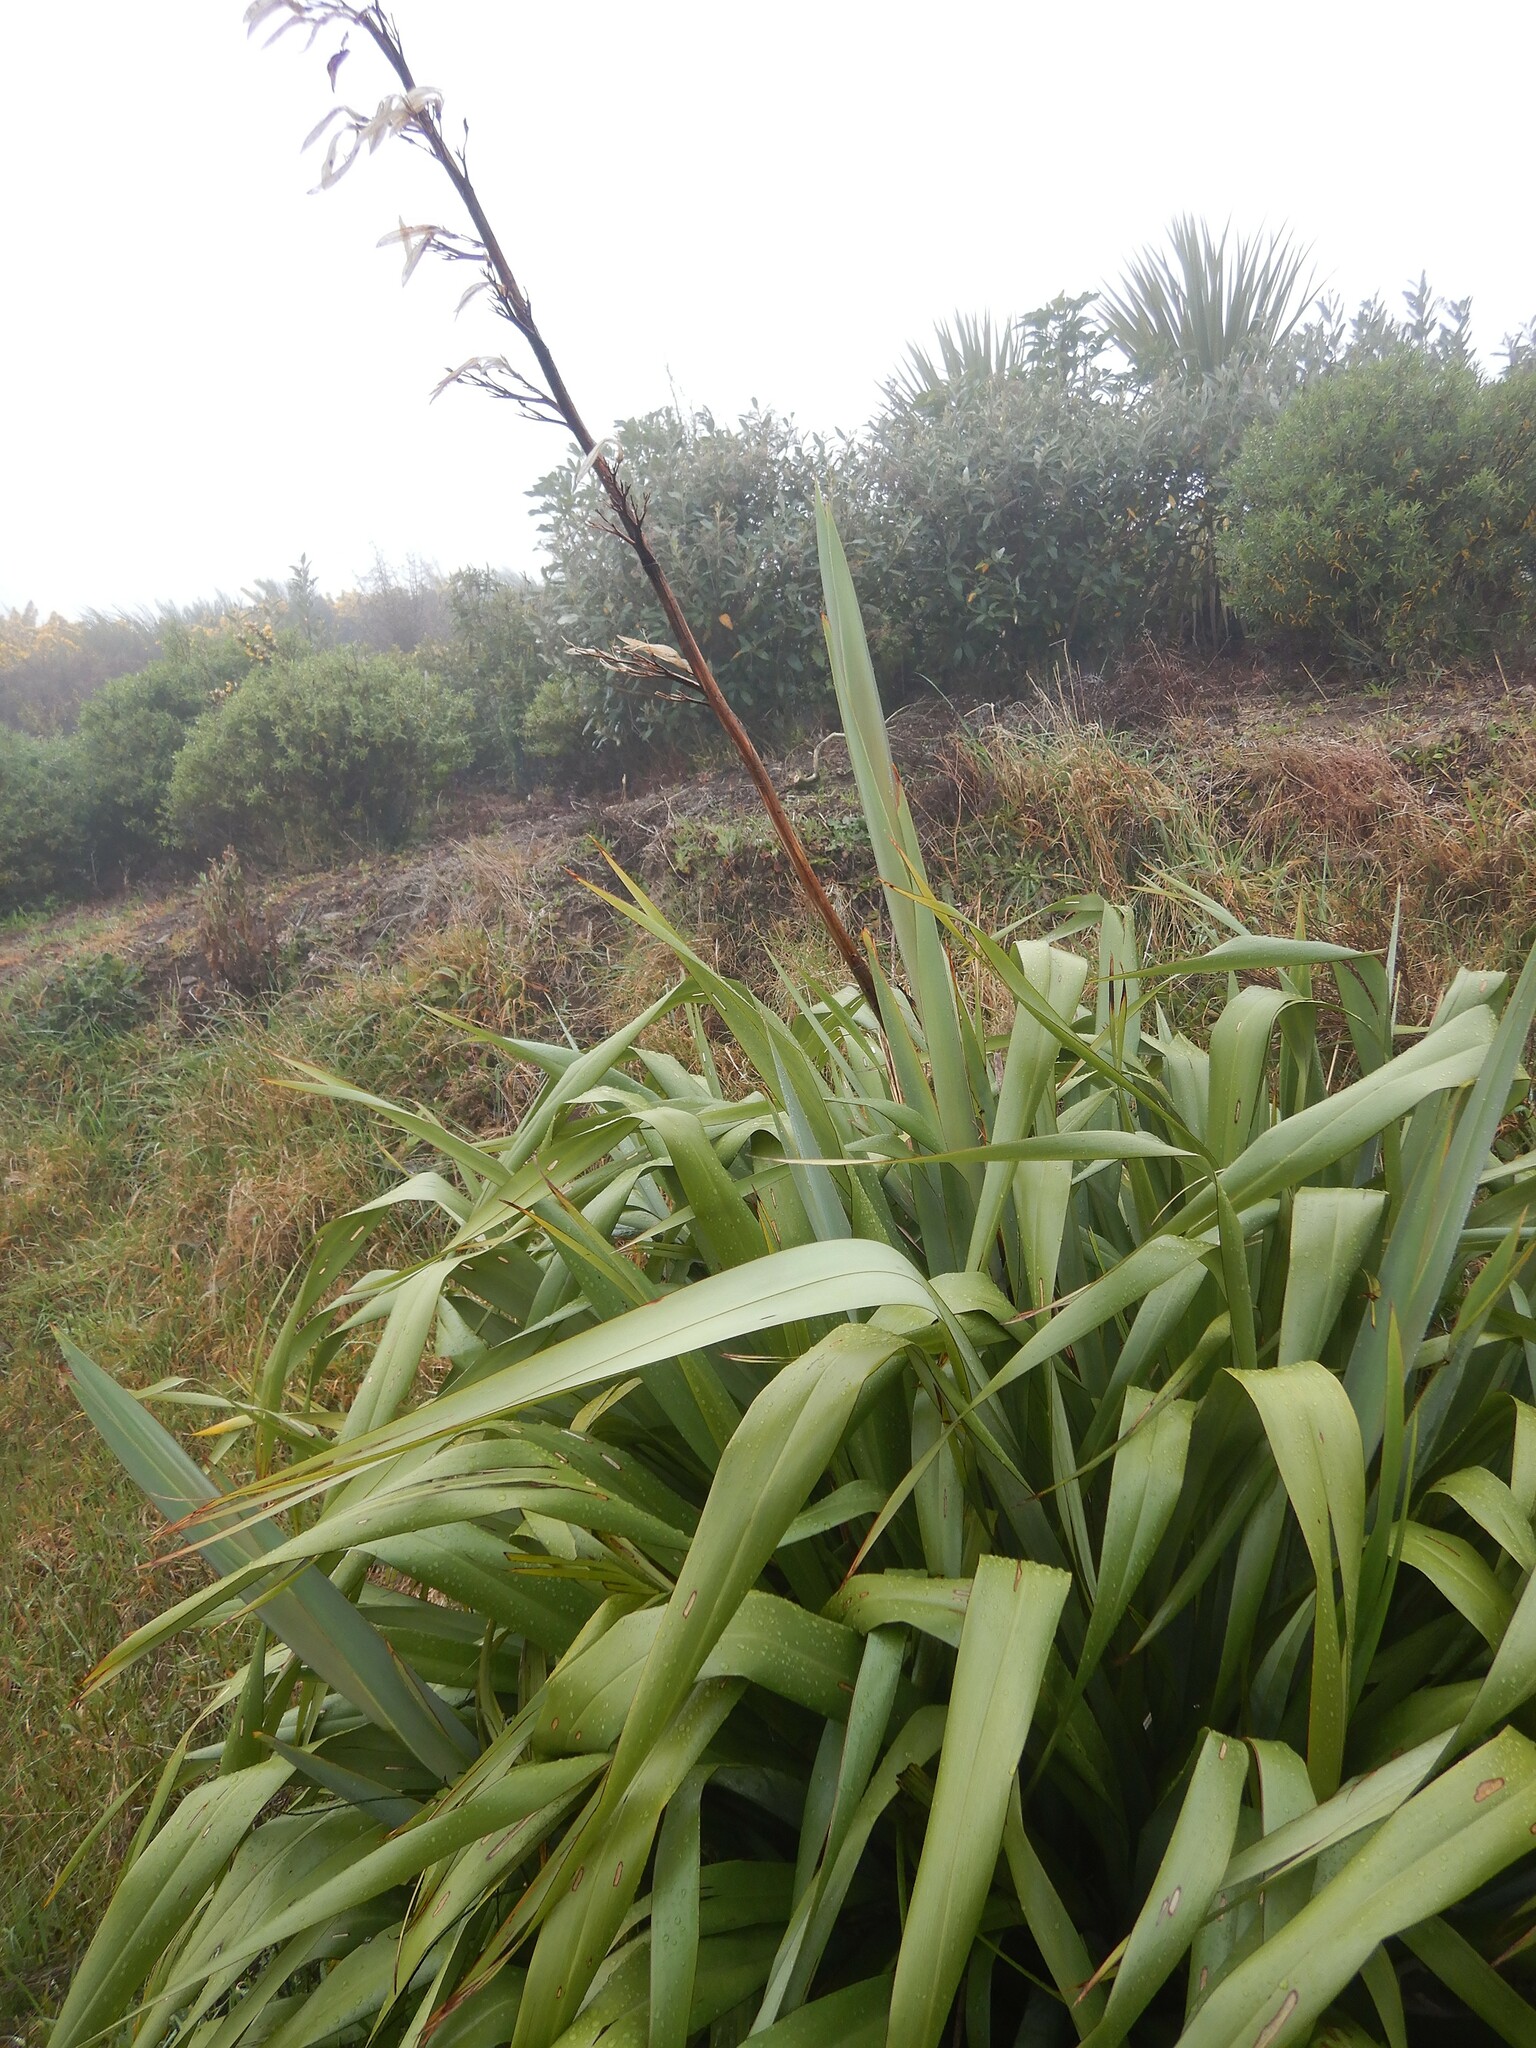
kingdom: Plantae
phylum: Tracheophyta
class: Liliopsida
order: Asparagales
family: Asphodelaceae
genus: Phormium
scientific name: Phormium colensoi
